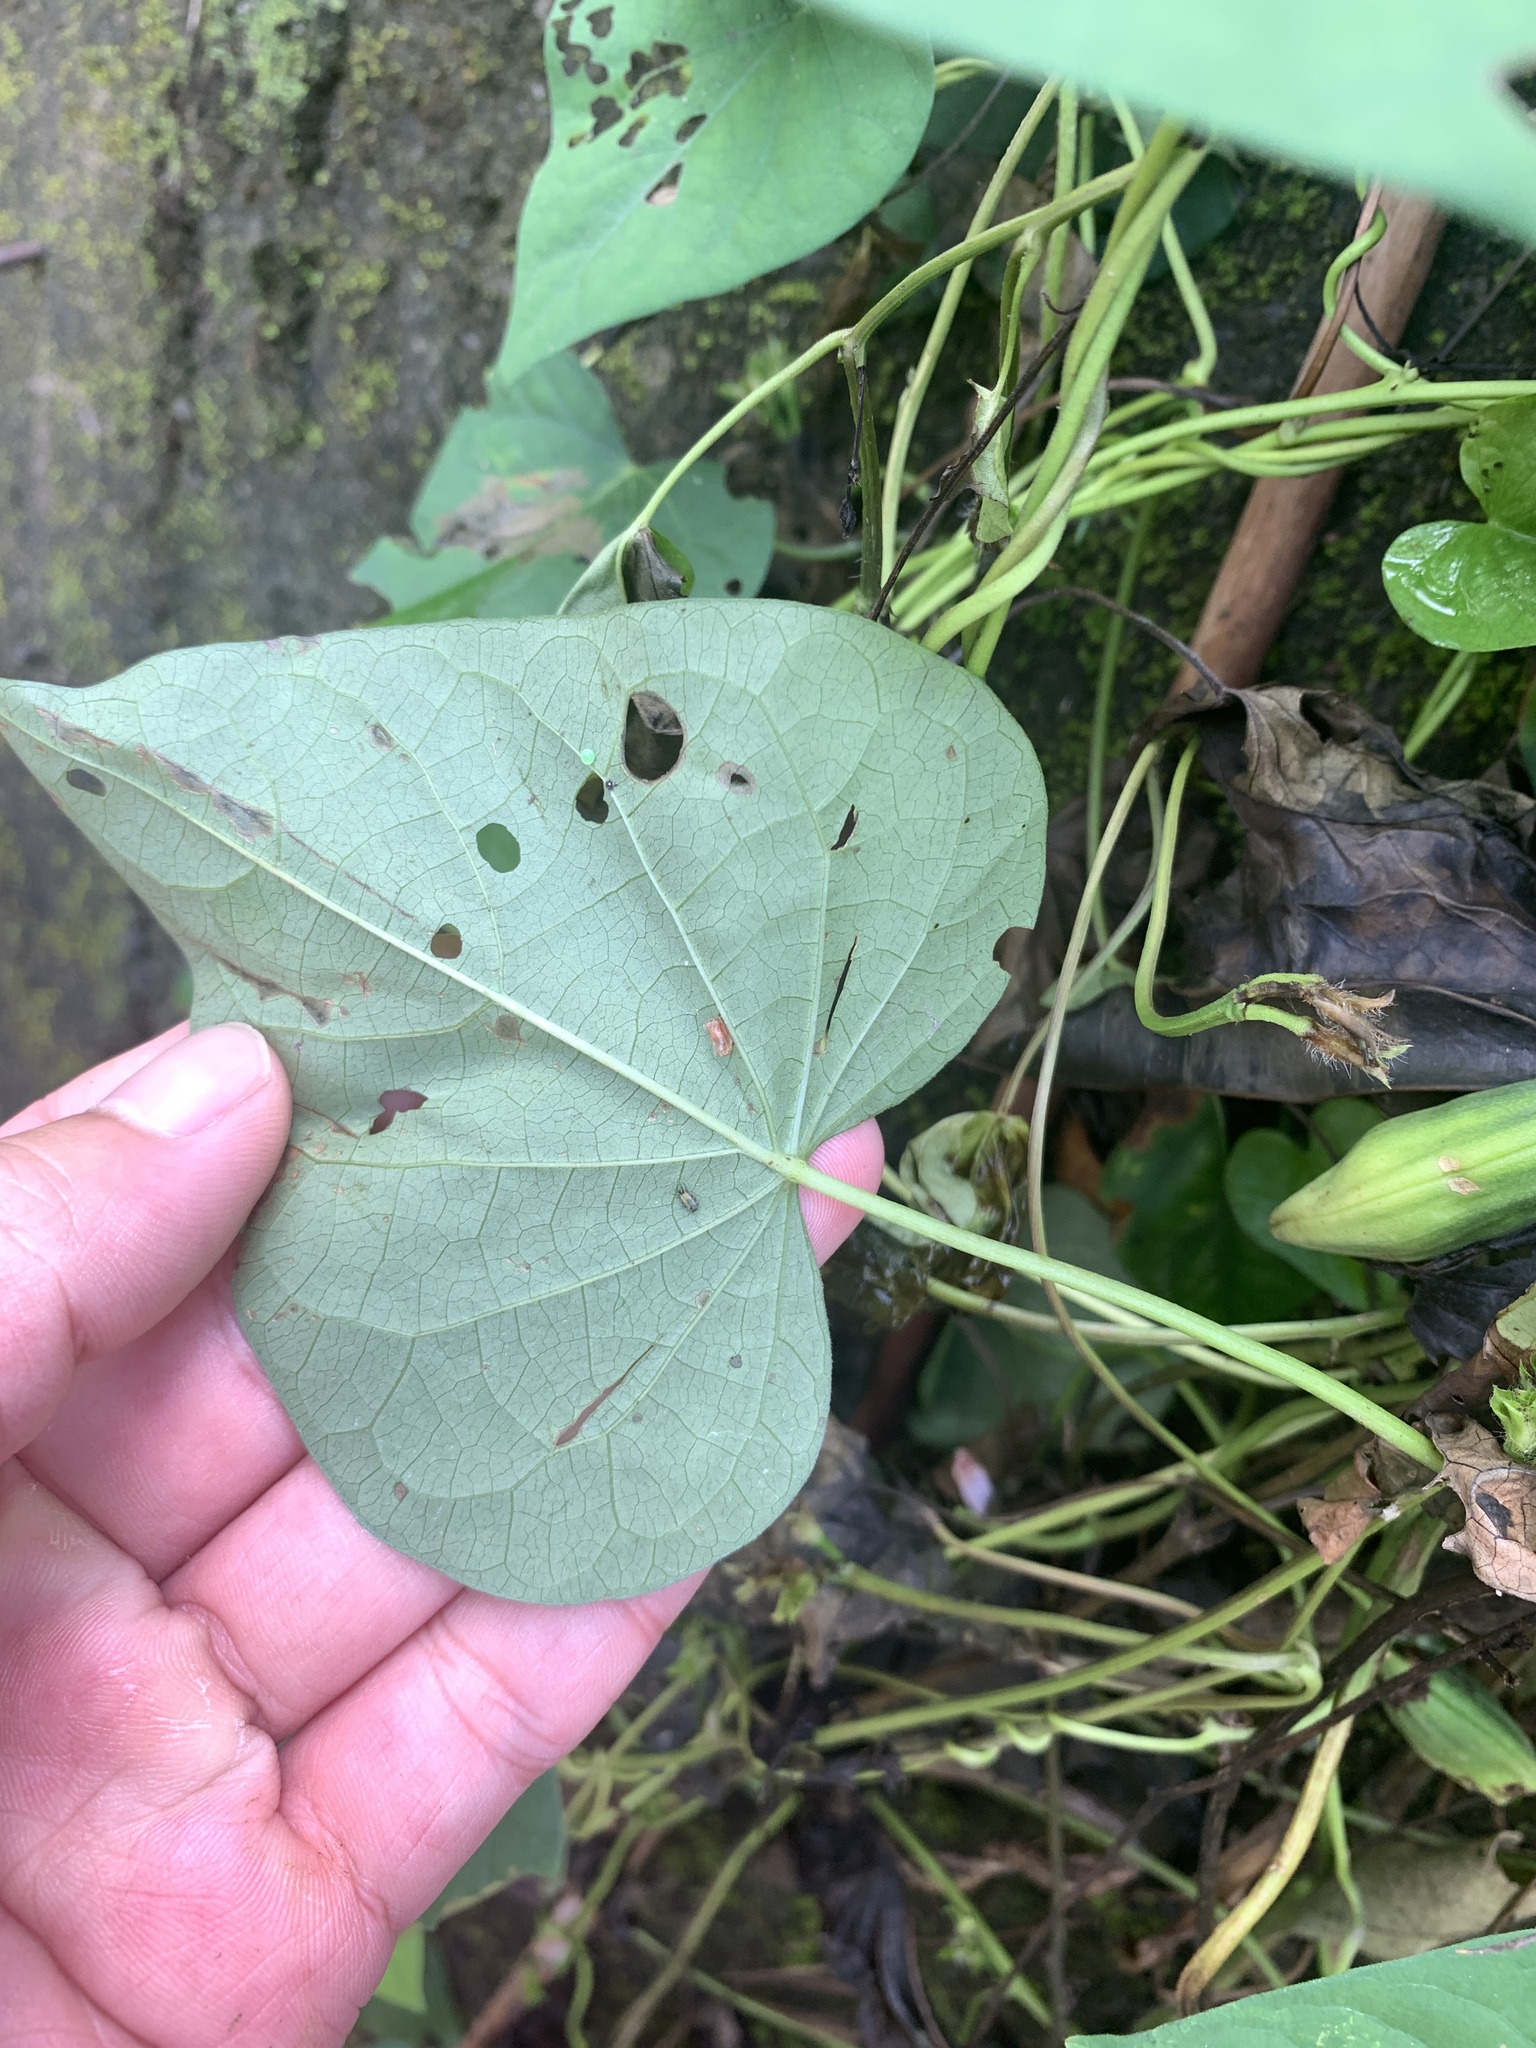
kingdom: Plantae
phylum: Tracheophyta
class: Magnoliopsida
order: Solanales
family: Convolvulaceae
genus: Ipomoea
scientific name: Ipomoea triloba
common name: Little-bell
